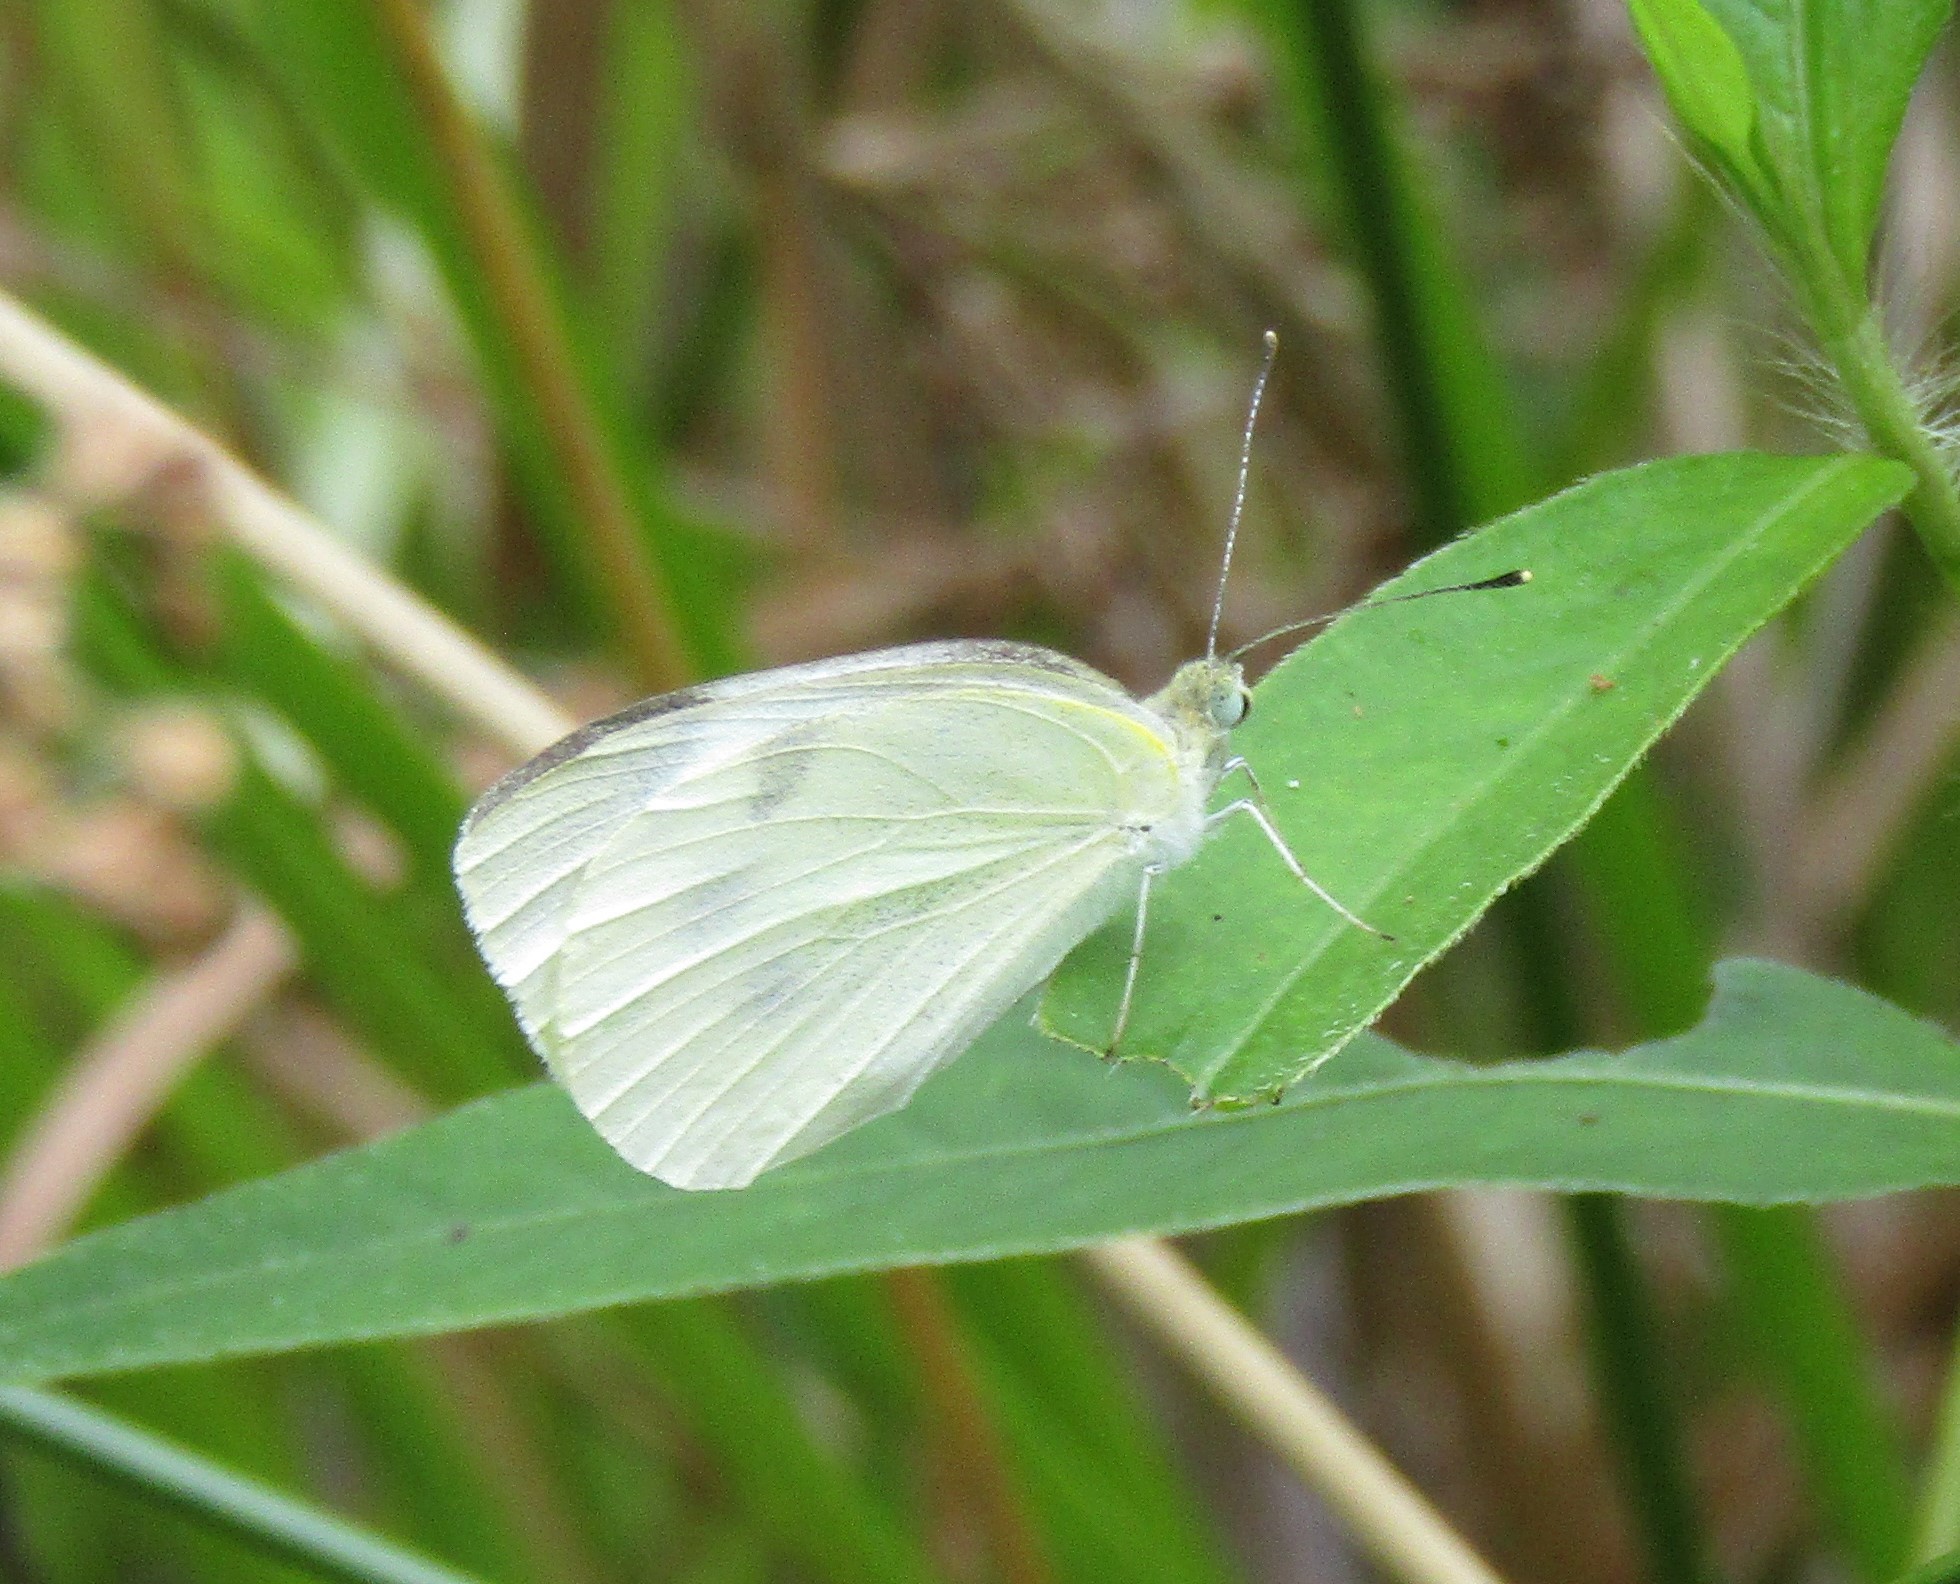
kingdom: Animalia
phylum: Arthropoda
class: Insecta
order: Lepidoptera
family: Pieridae
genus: Pieris
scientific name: Pieris rapae
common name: Small white
